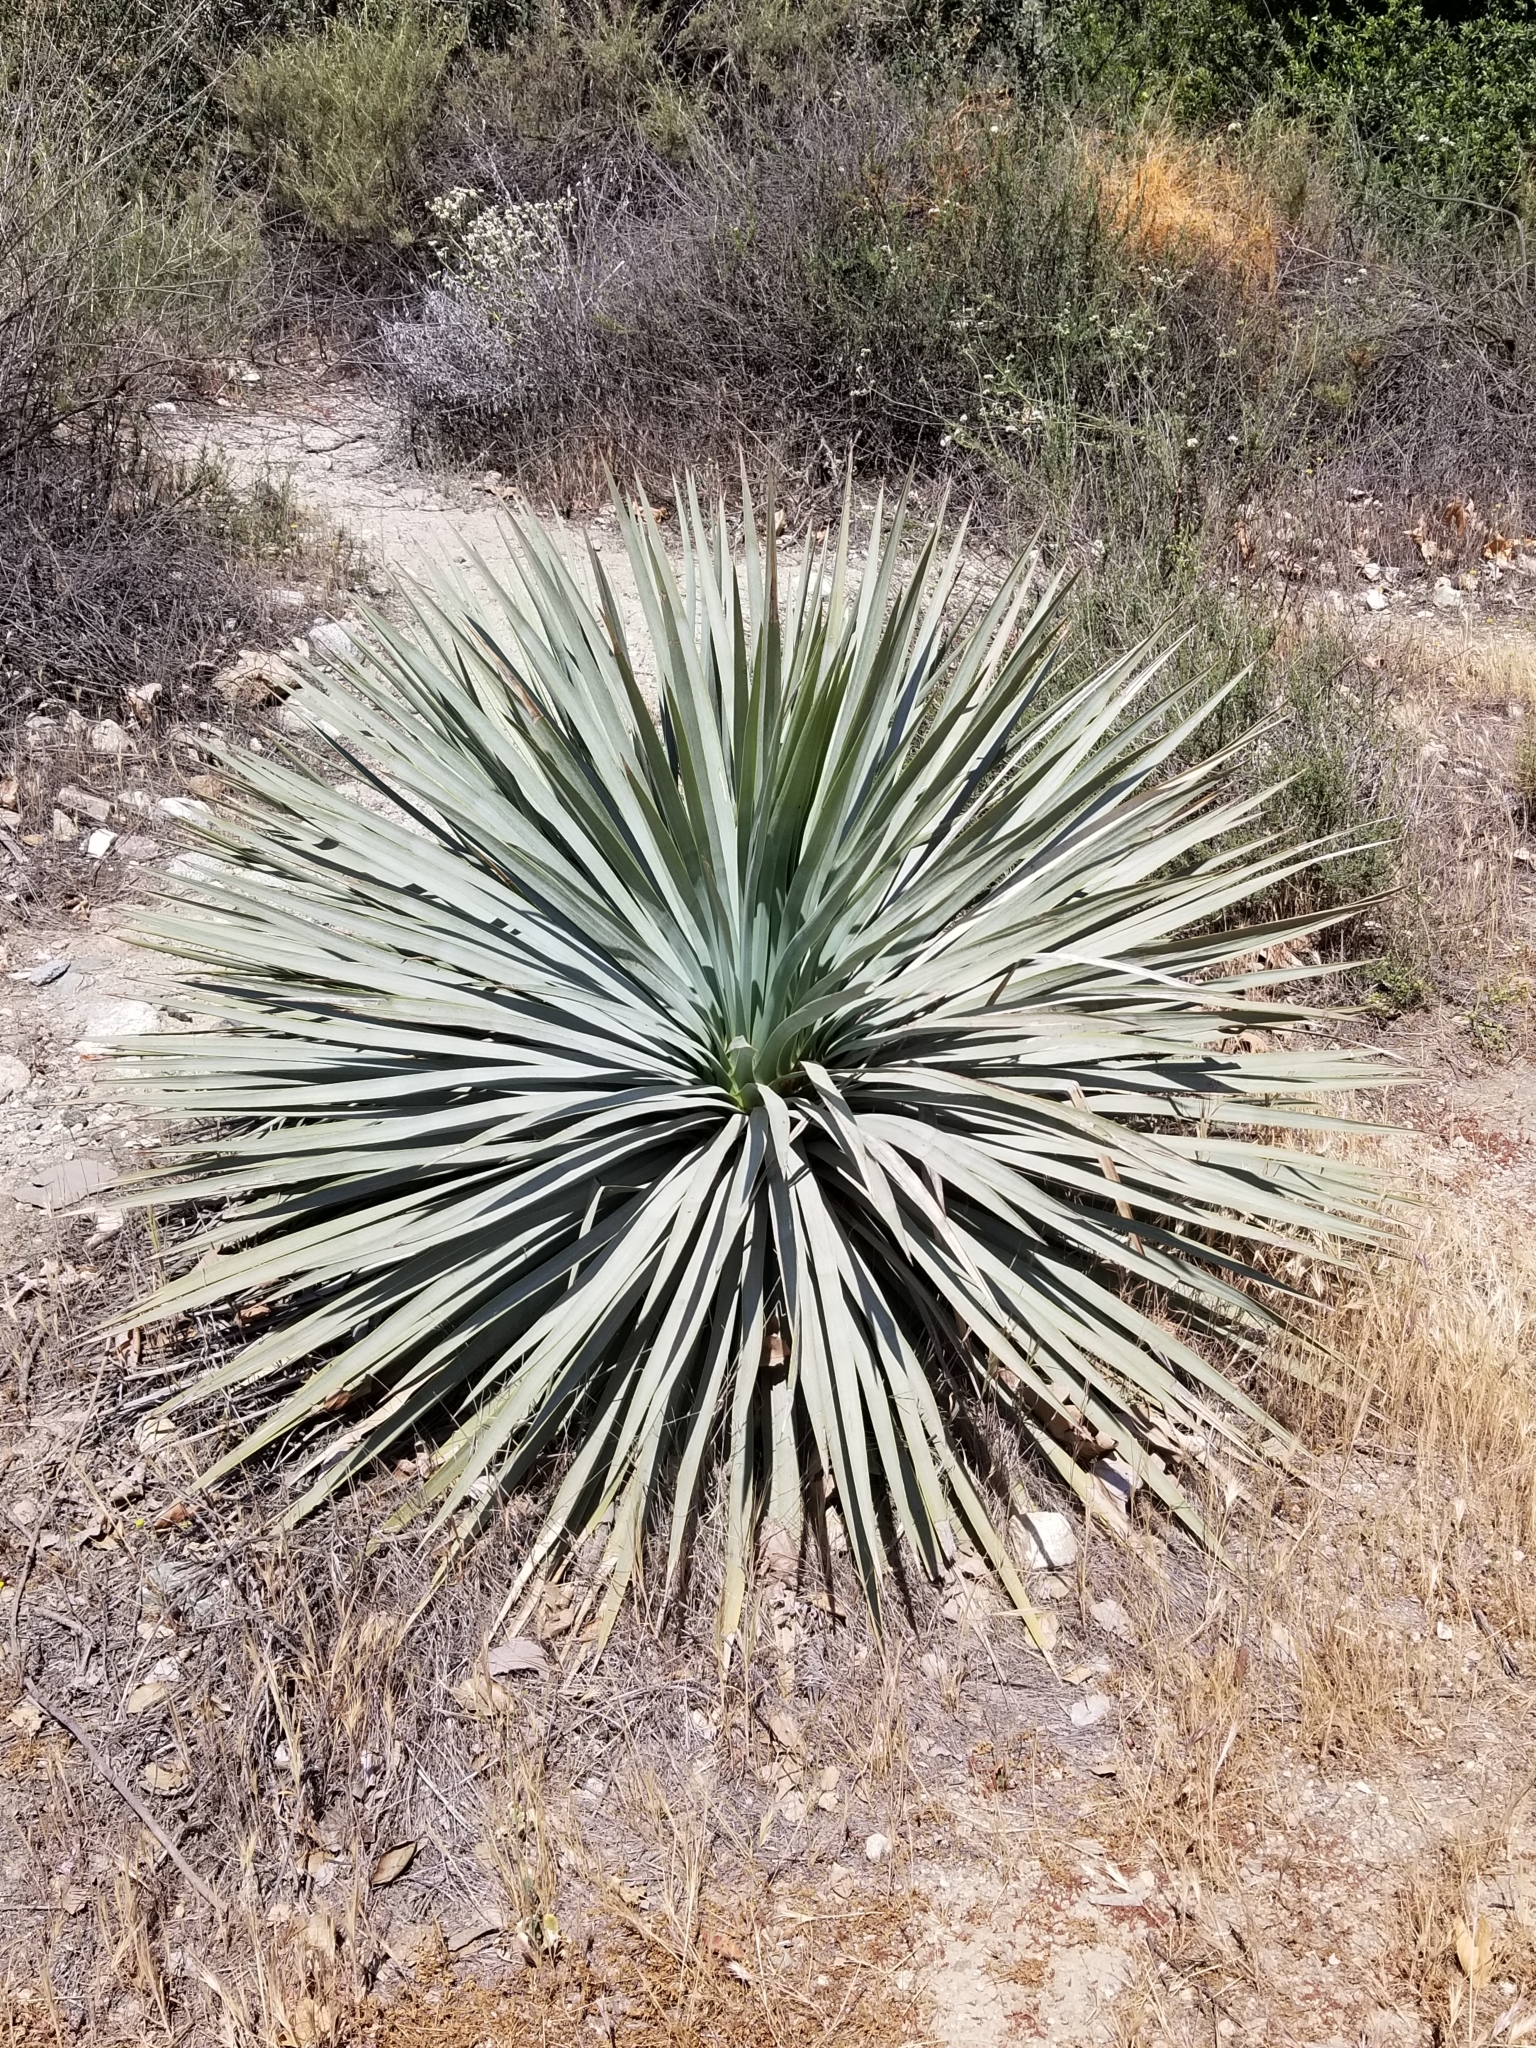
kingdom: Plantae
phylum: Tracheophyta
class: Liliopsida
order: Asparagales
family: Asparagaceae
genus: Hesperoyucca
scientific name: Hesperoyucca whipplei
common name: Our lord's-candle
